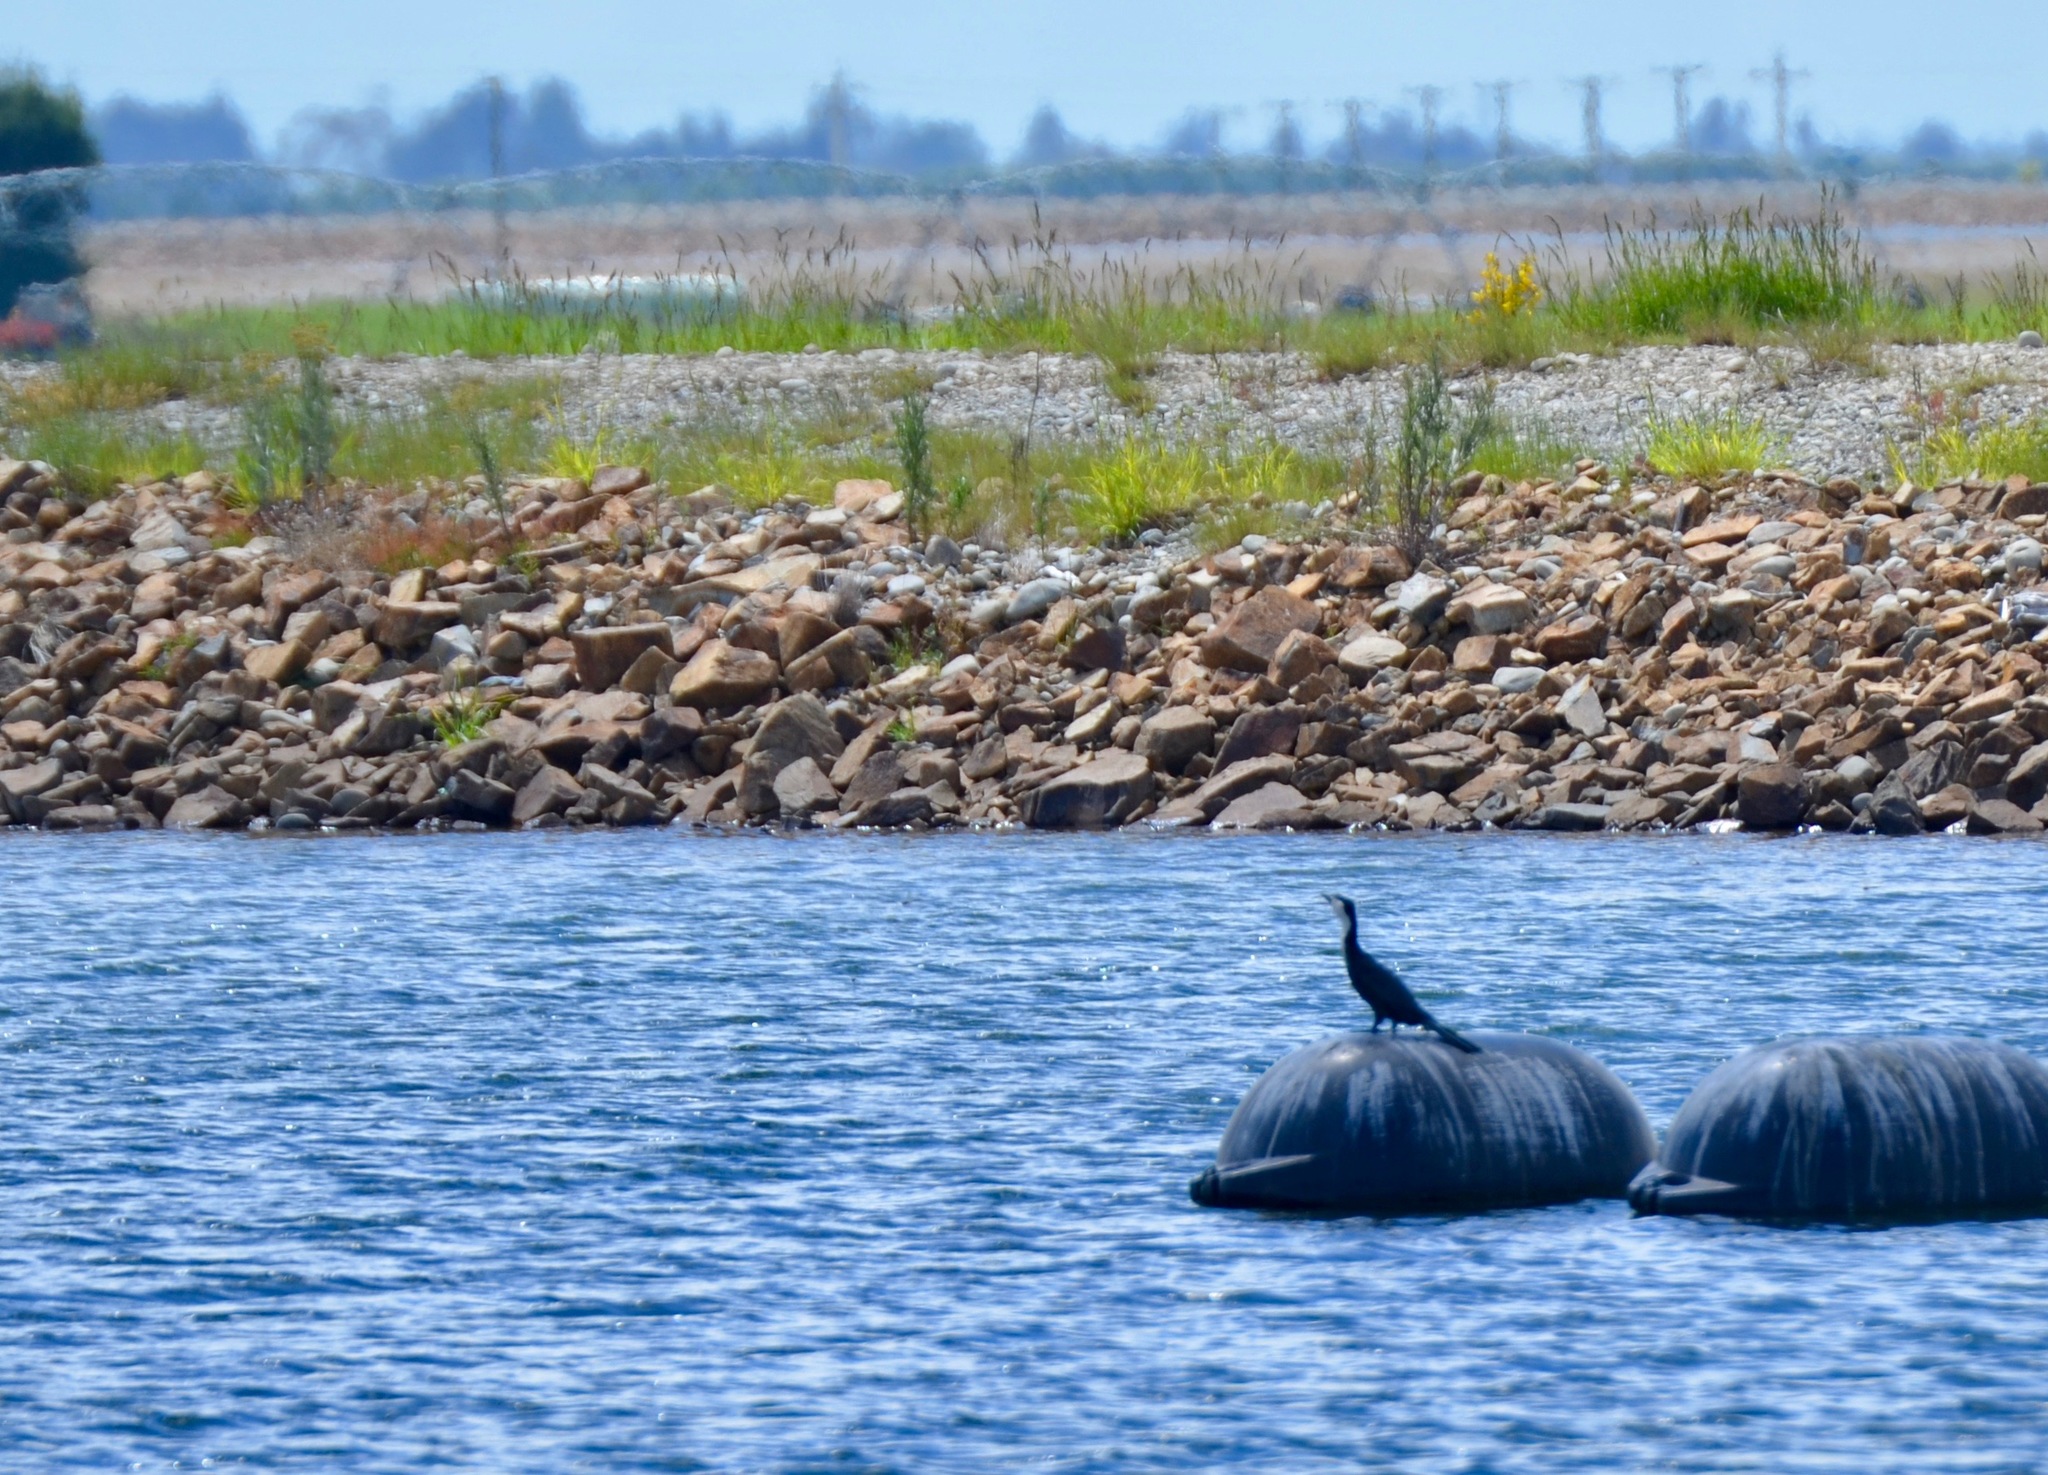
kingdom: Animalia
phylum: Chordata
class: Aves
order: Suliformes
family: Phalacrocoracidae
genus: Microcarbo
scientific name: Microcarbo melanoleucos
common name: Little pied cormorant
